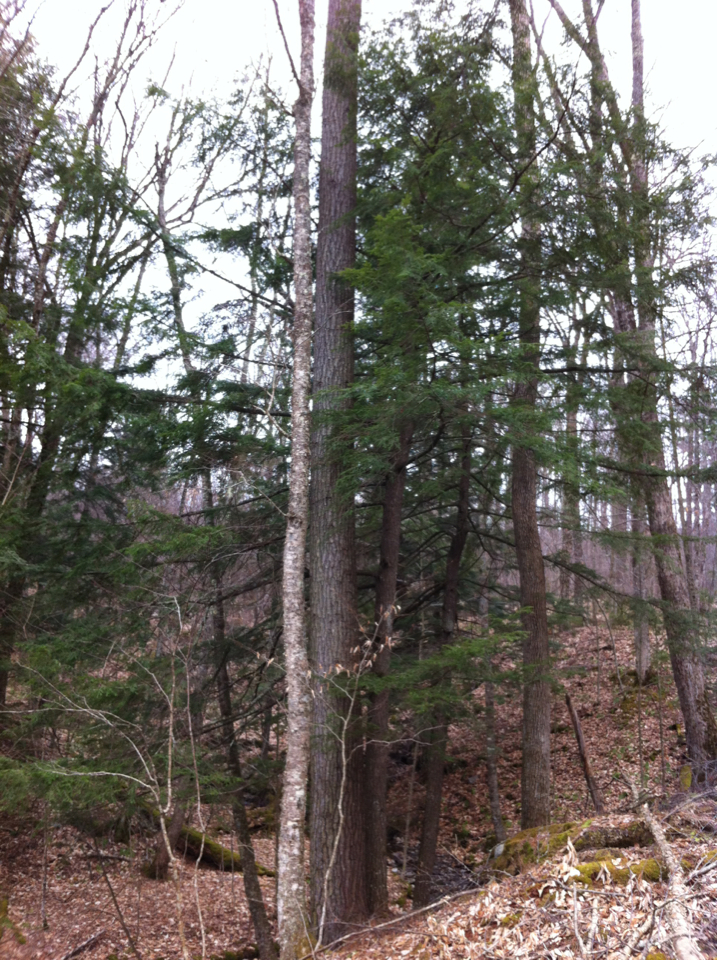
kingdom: Plantae
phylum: Tracheophyta
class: Pinopsida
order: Pinales
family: Pinaceae
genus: Tsuga
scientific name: Tsuga canadensis
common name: Eastern hemlock
